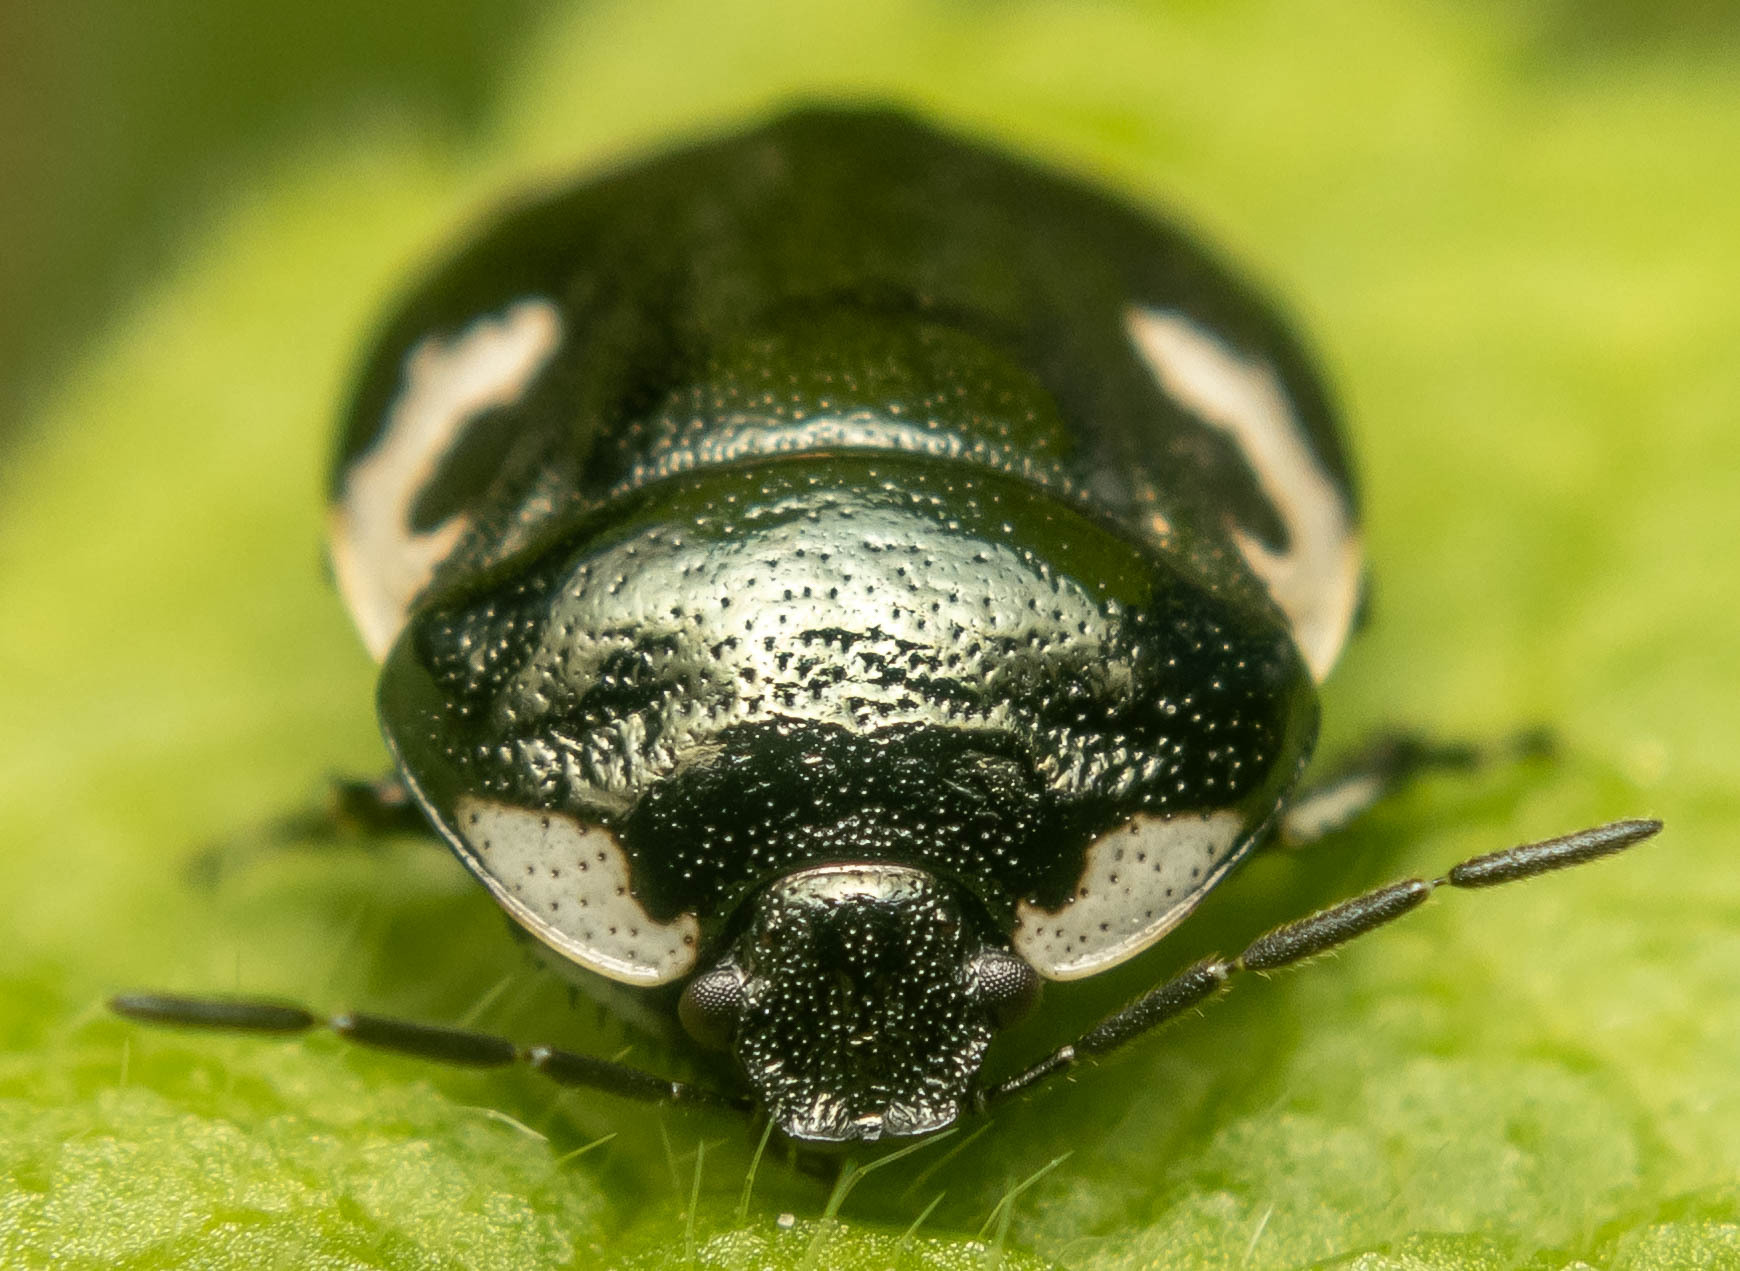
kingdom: Animalia
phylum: Arthropoda
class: Insecta
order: Hemiptera
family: Cydnidae
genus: Tritomegas
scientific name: Tritomegas bicolor
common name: Pied shieldbug
